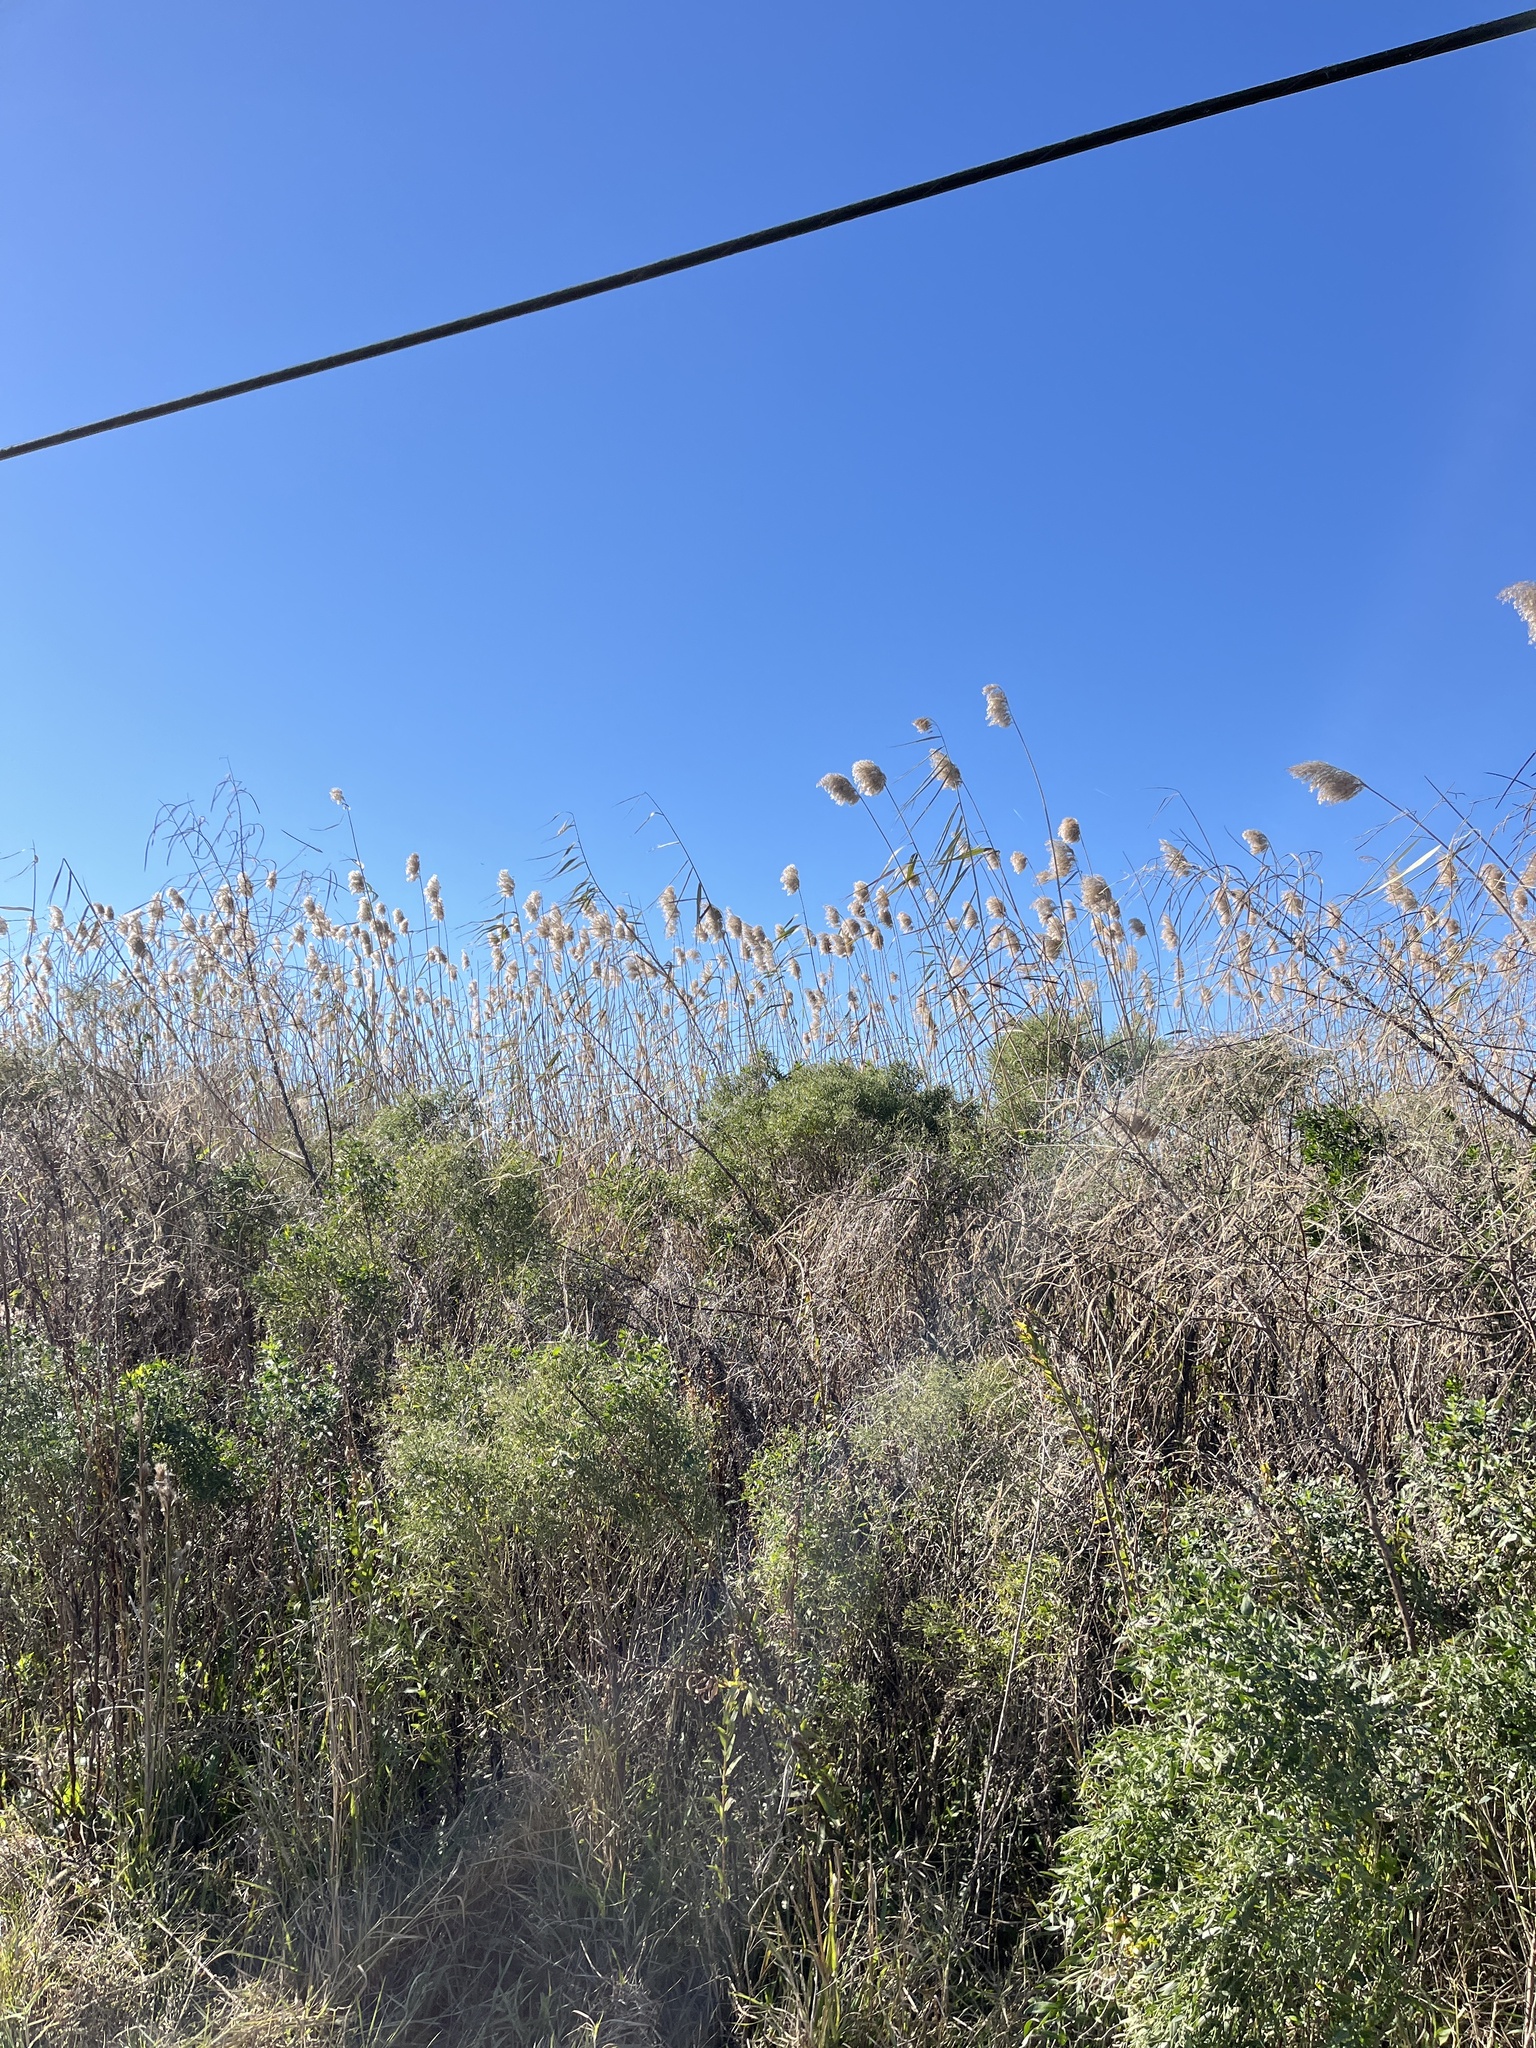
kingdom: Plantae
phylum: Tracheophyta
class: Liliopsida
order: Poales
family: Poaceae
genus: Phragmites
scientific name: Phragmites australis
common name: Common reed
